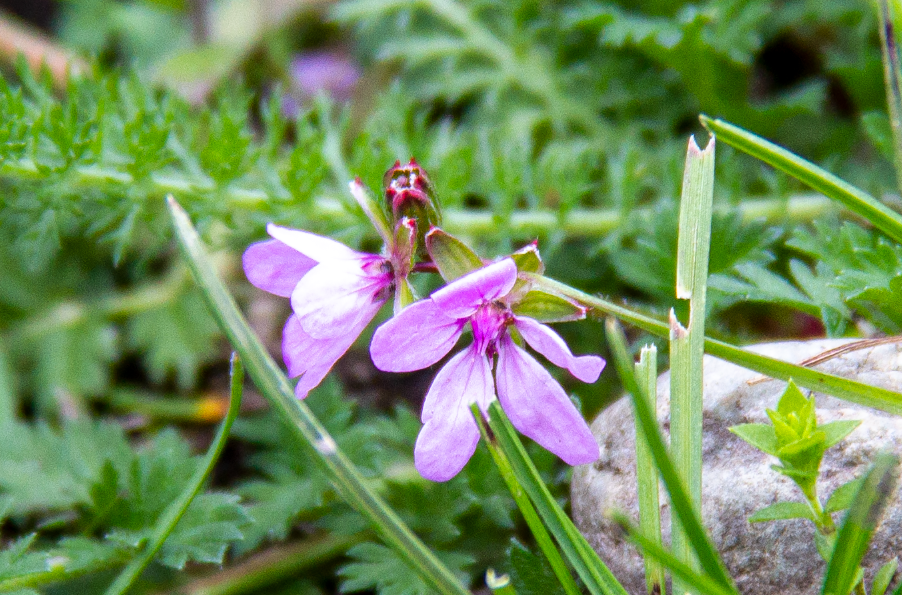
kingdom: Plantae
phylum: Tracheophyta
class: Magnoliopsida
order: Geraniales
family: Geraniaceae
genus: Erodium
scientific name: Erodium cicutarium
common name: Common stork's-bill
